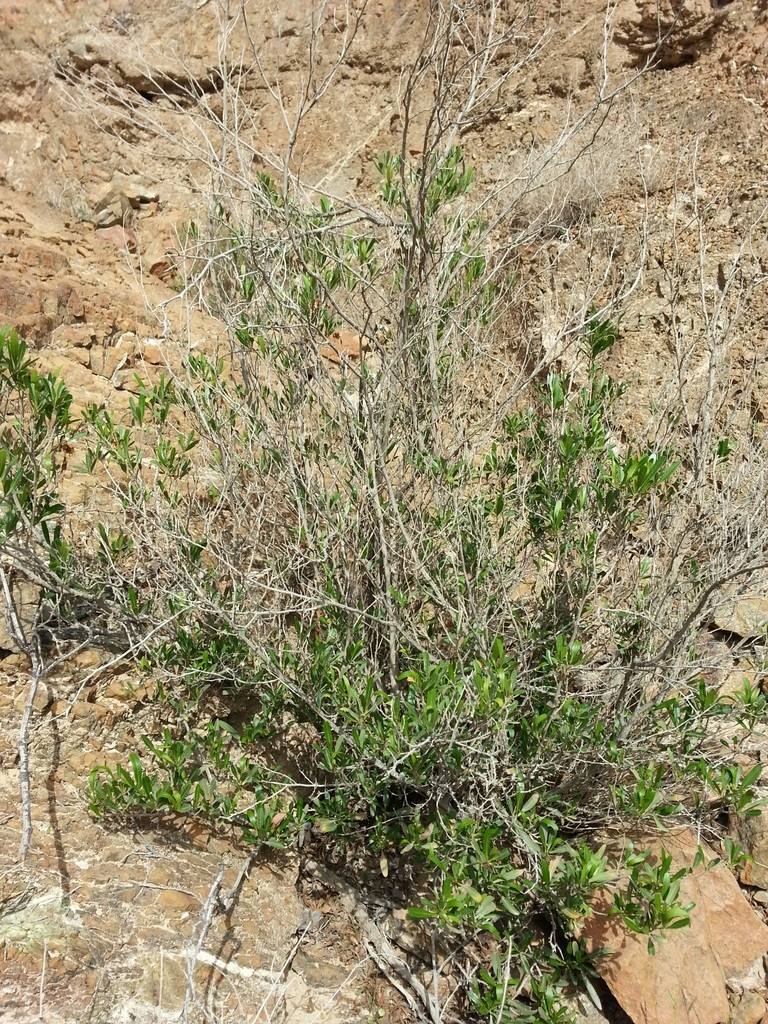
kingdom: Plantae
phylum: Tracheophyta
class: Magnoliopsida
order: Sapindales
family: Sapindaceae
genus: Dodonaea
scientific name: Dodonaea viscosa
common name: Hopbush
